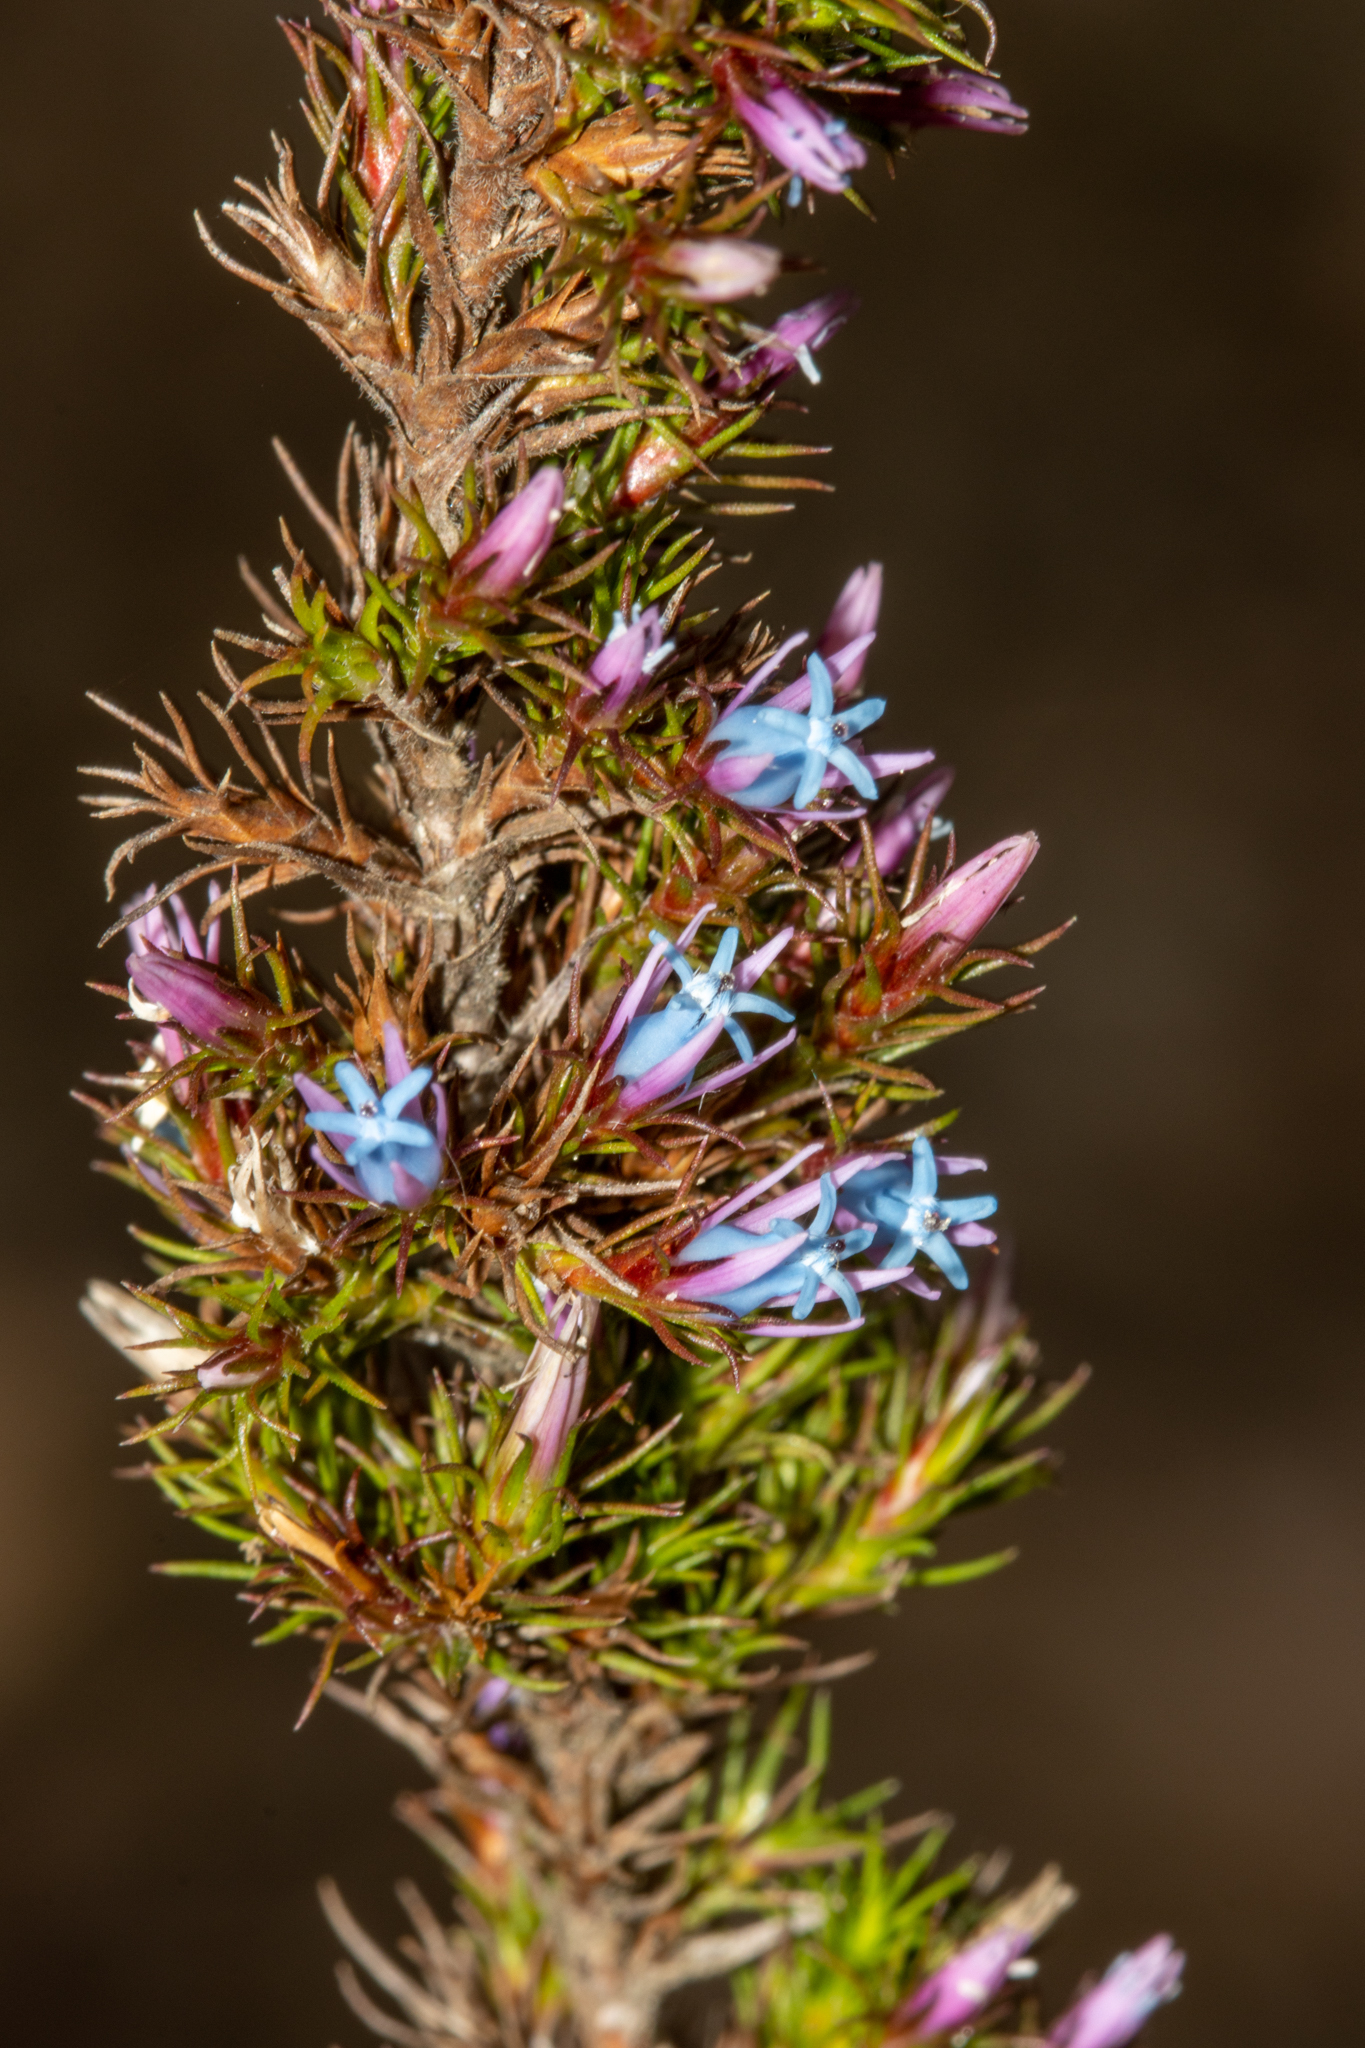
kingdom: Plantae
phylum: Tracheophyta
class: Magnoliopsida
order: Ericales
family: Ericaceae
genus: Andersonia
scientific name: Andersonia caerulea
